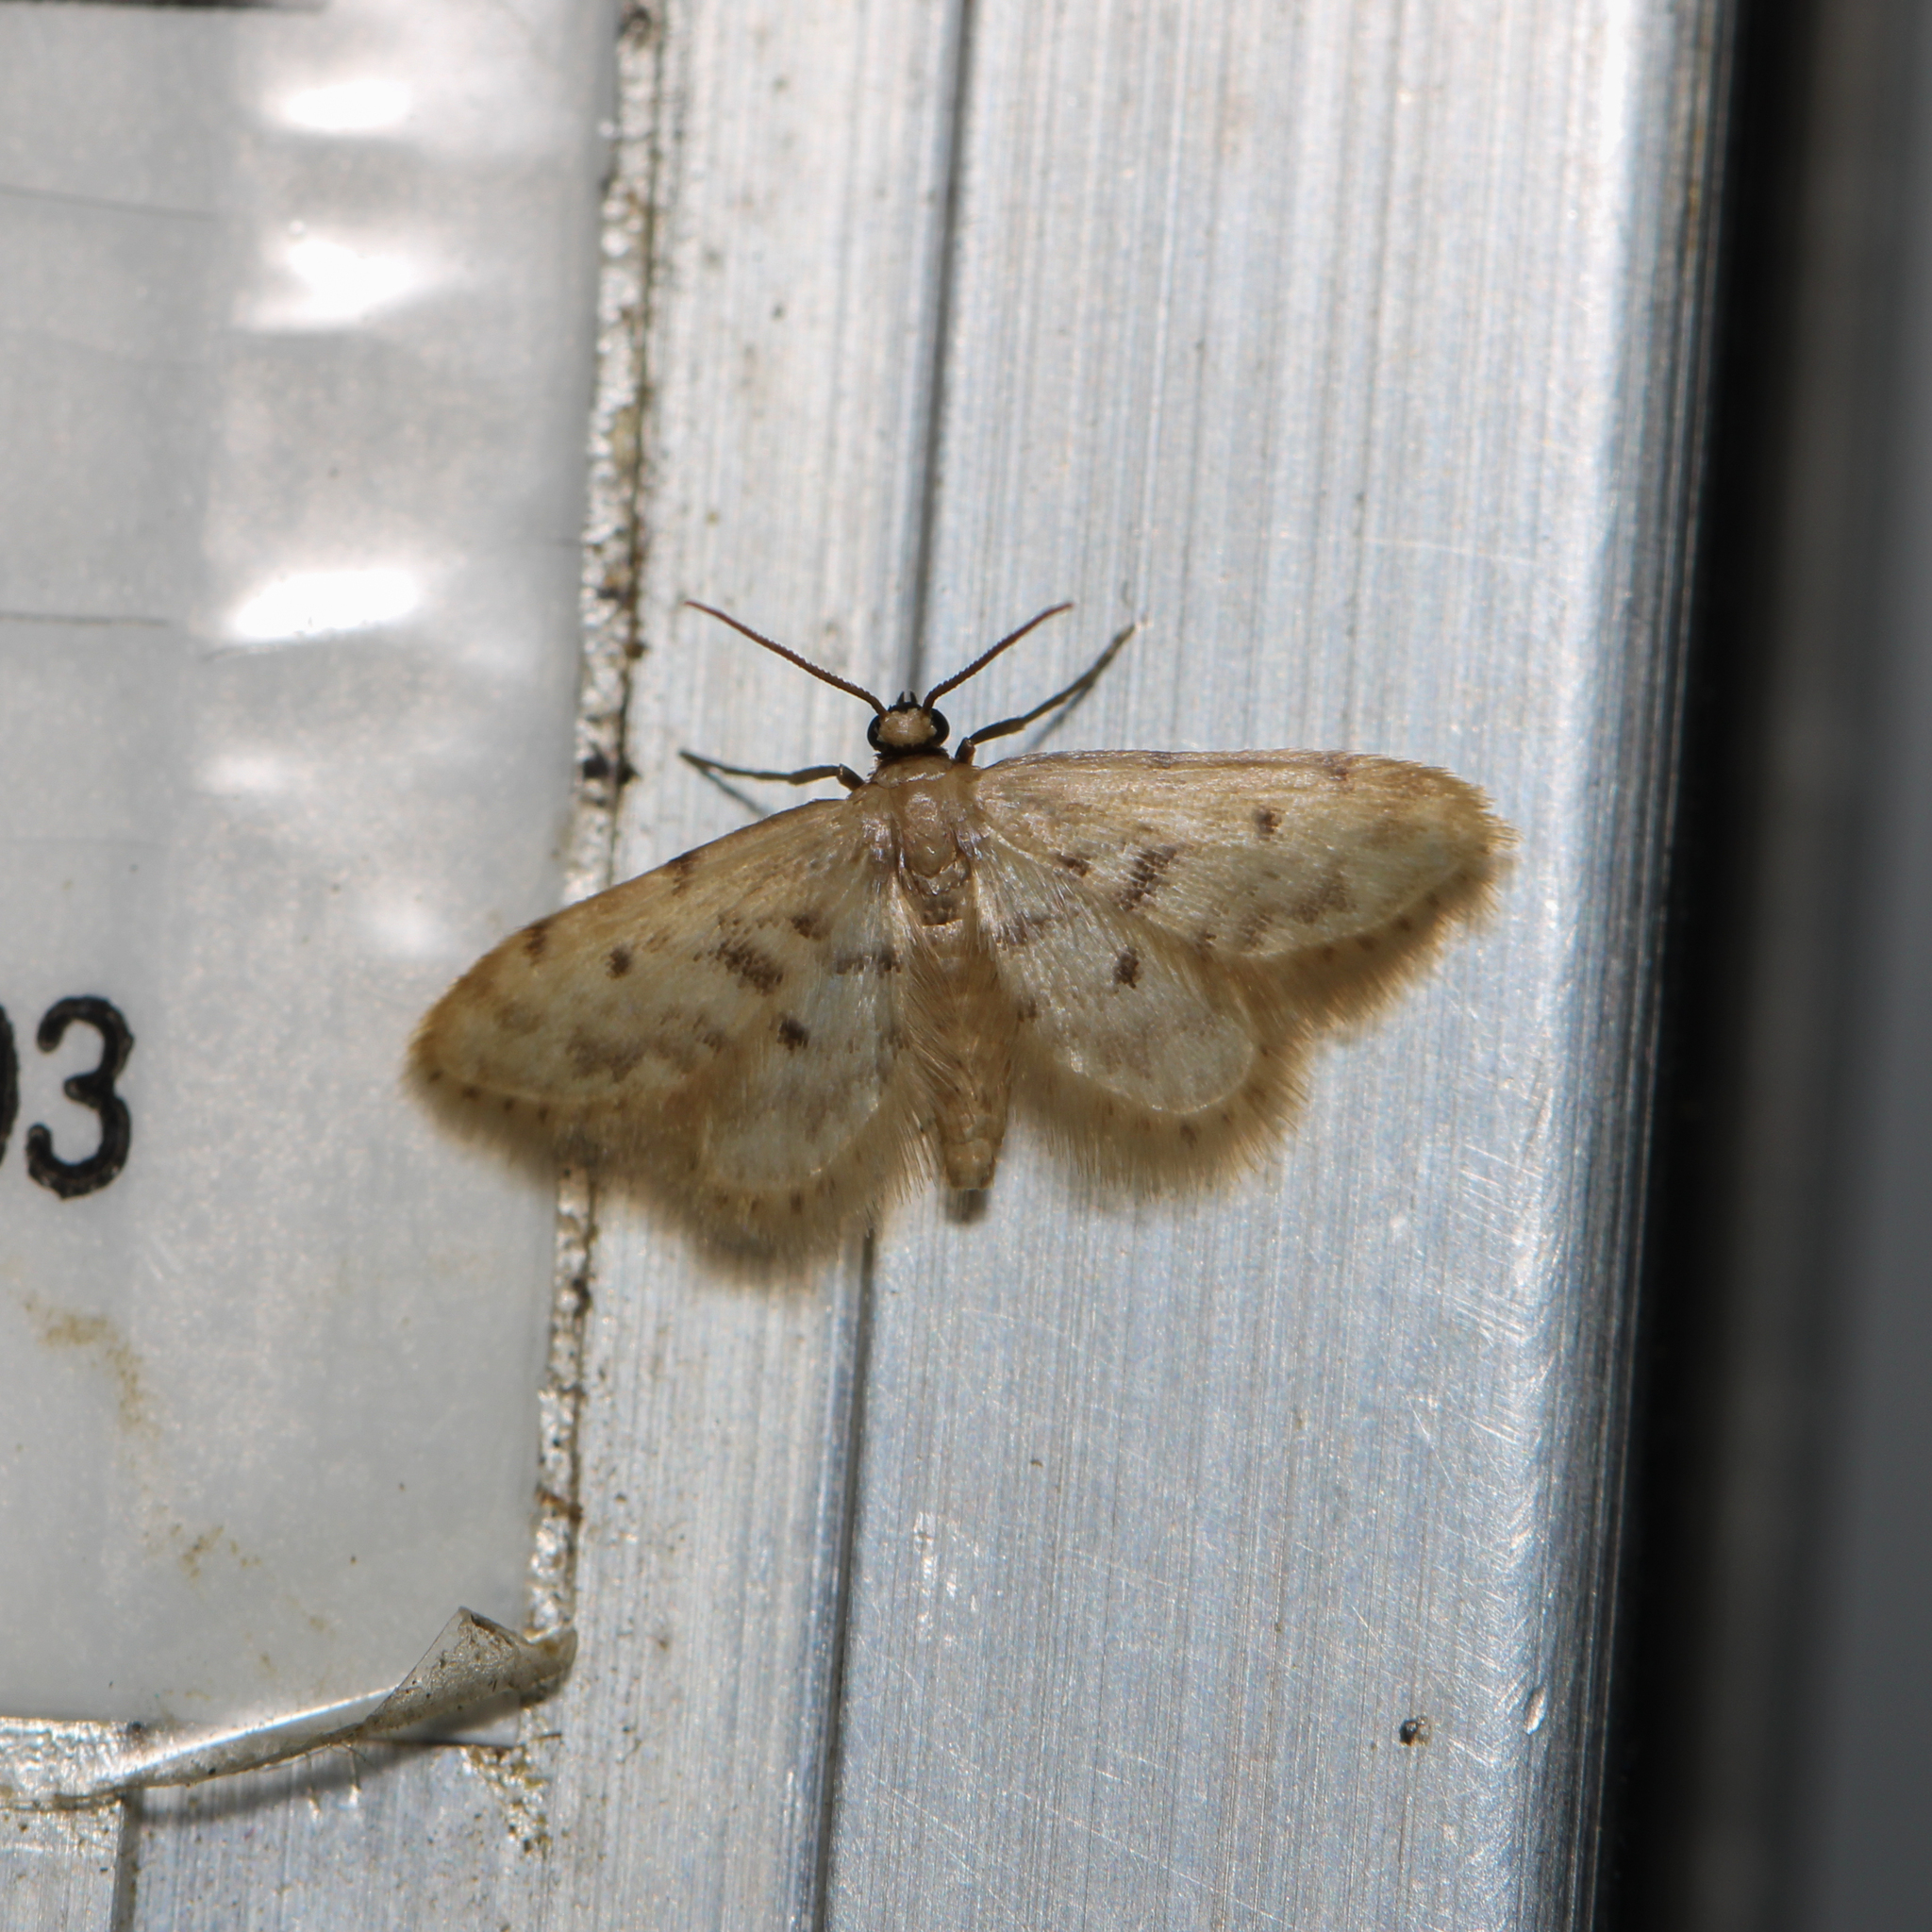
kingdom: Animalia
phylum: Arthropoda
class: Insecta
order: Lepidoptera
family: Geometridae
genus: Idaea
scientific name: Idaea bonifata
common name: Fortunate wave
